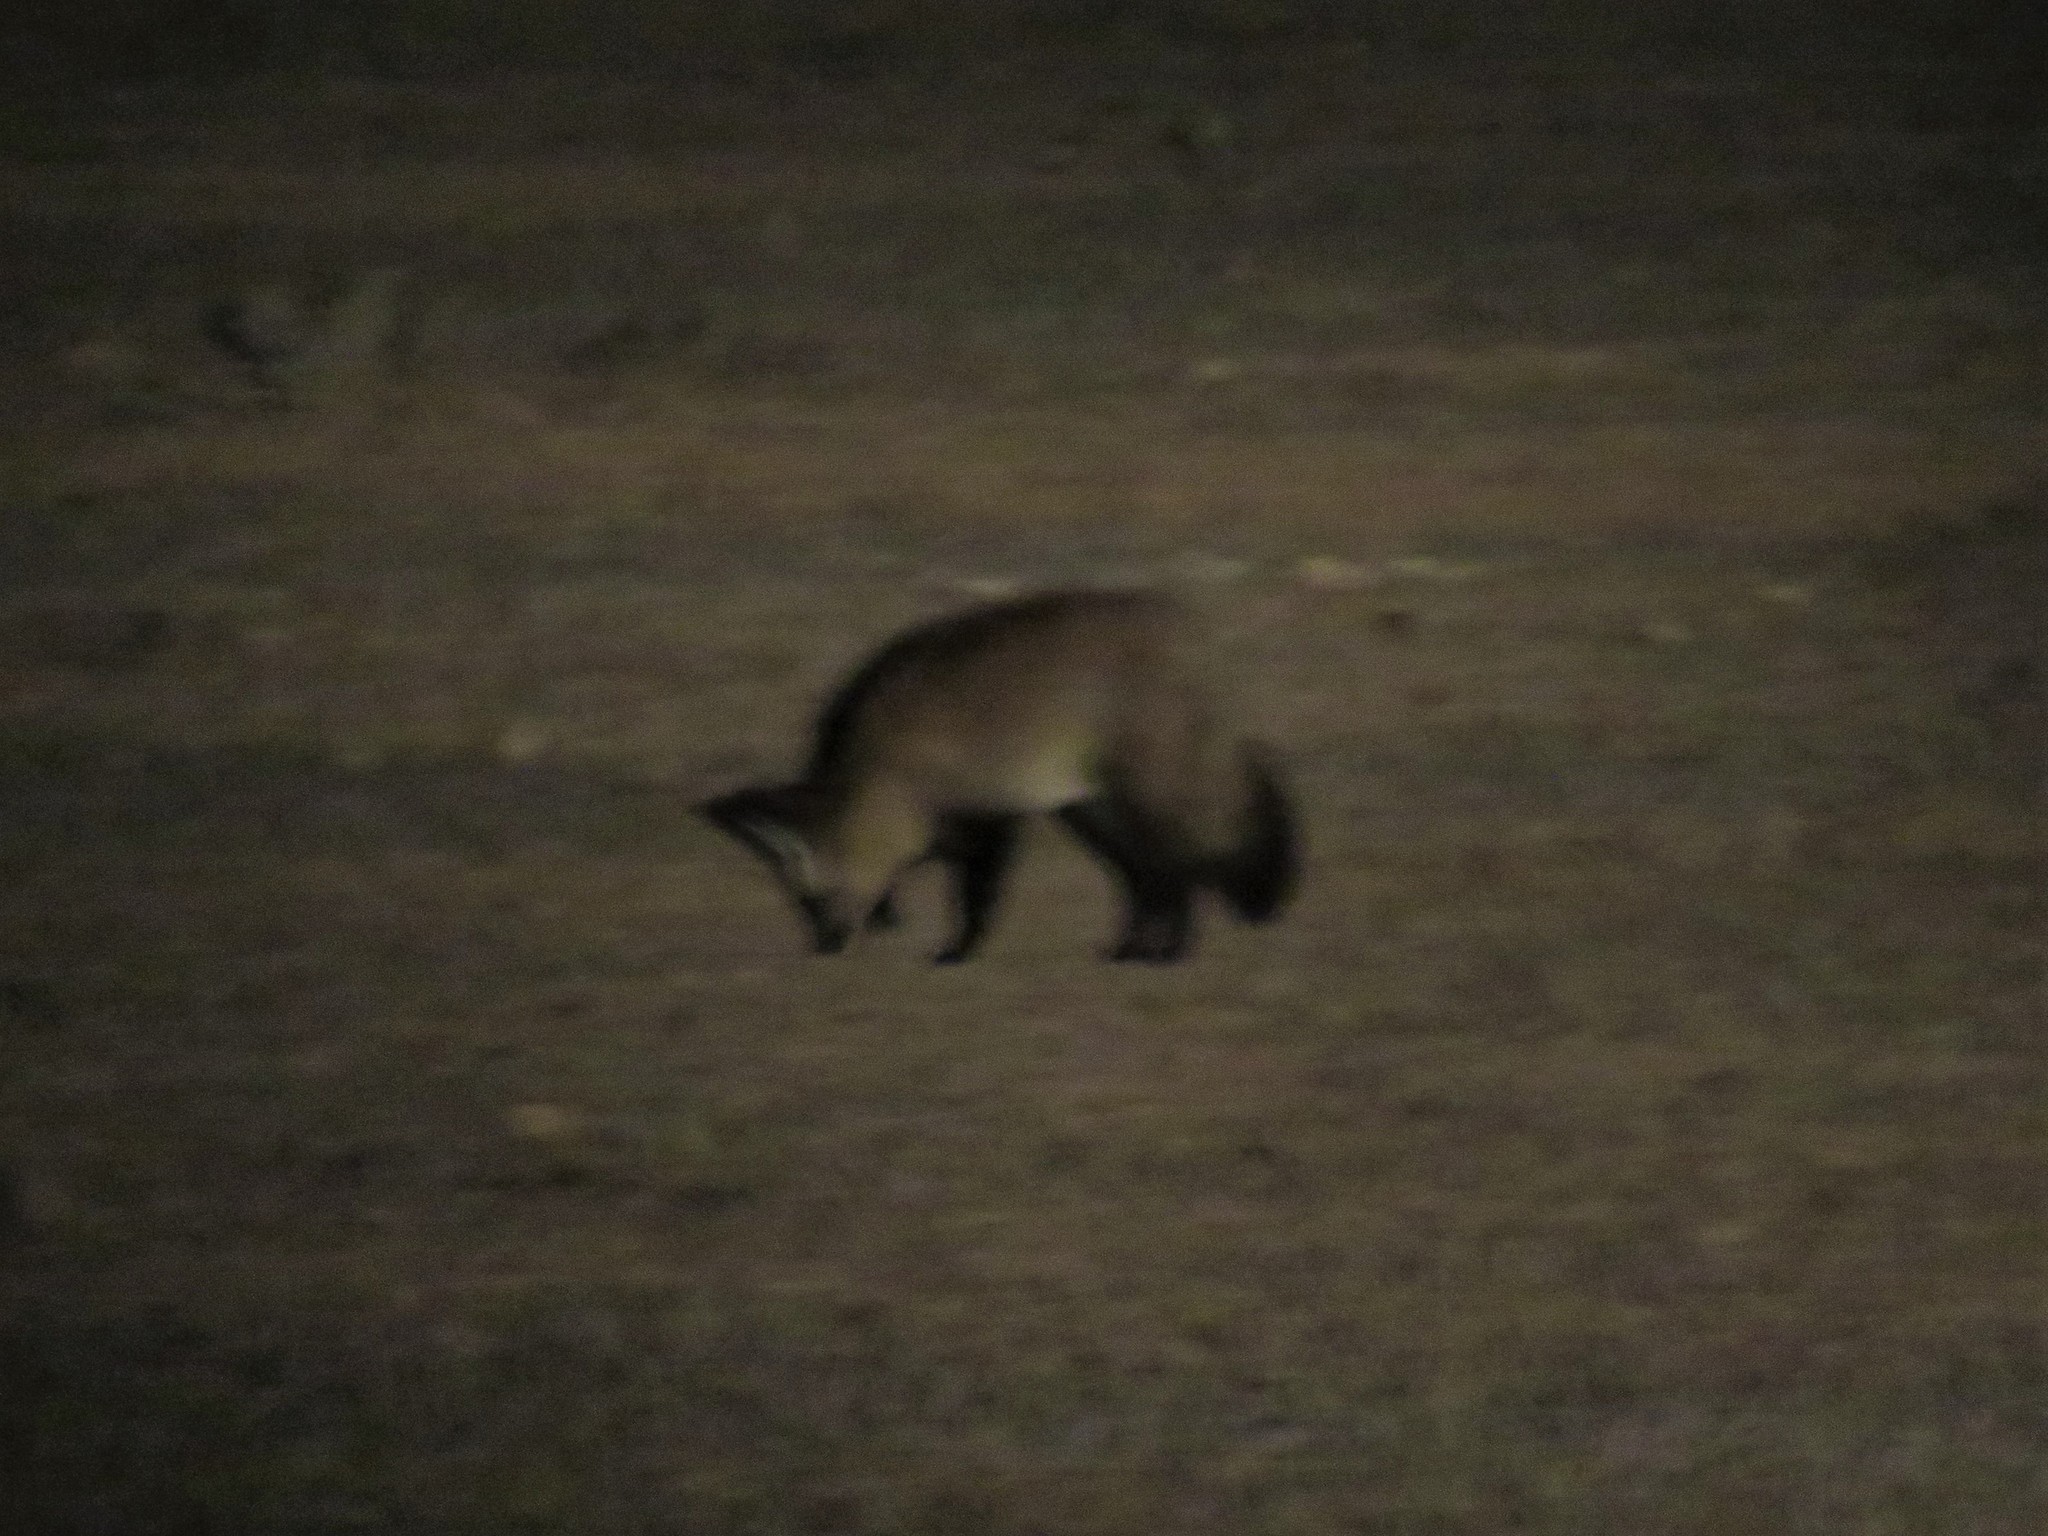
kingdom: Animalia
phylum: Chordata
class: Mammalia
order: Carnivora
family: Canidae
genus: Otocyon
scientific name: Otocyon megalotis
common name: Bat-eared fox
